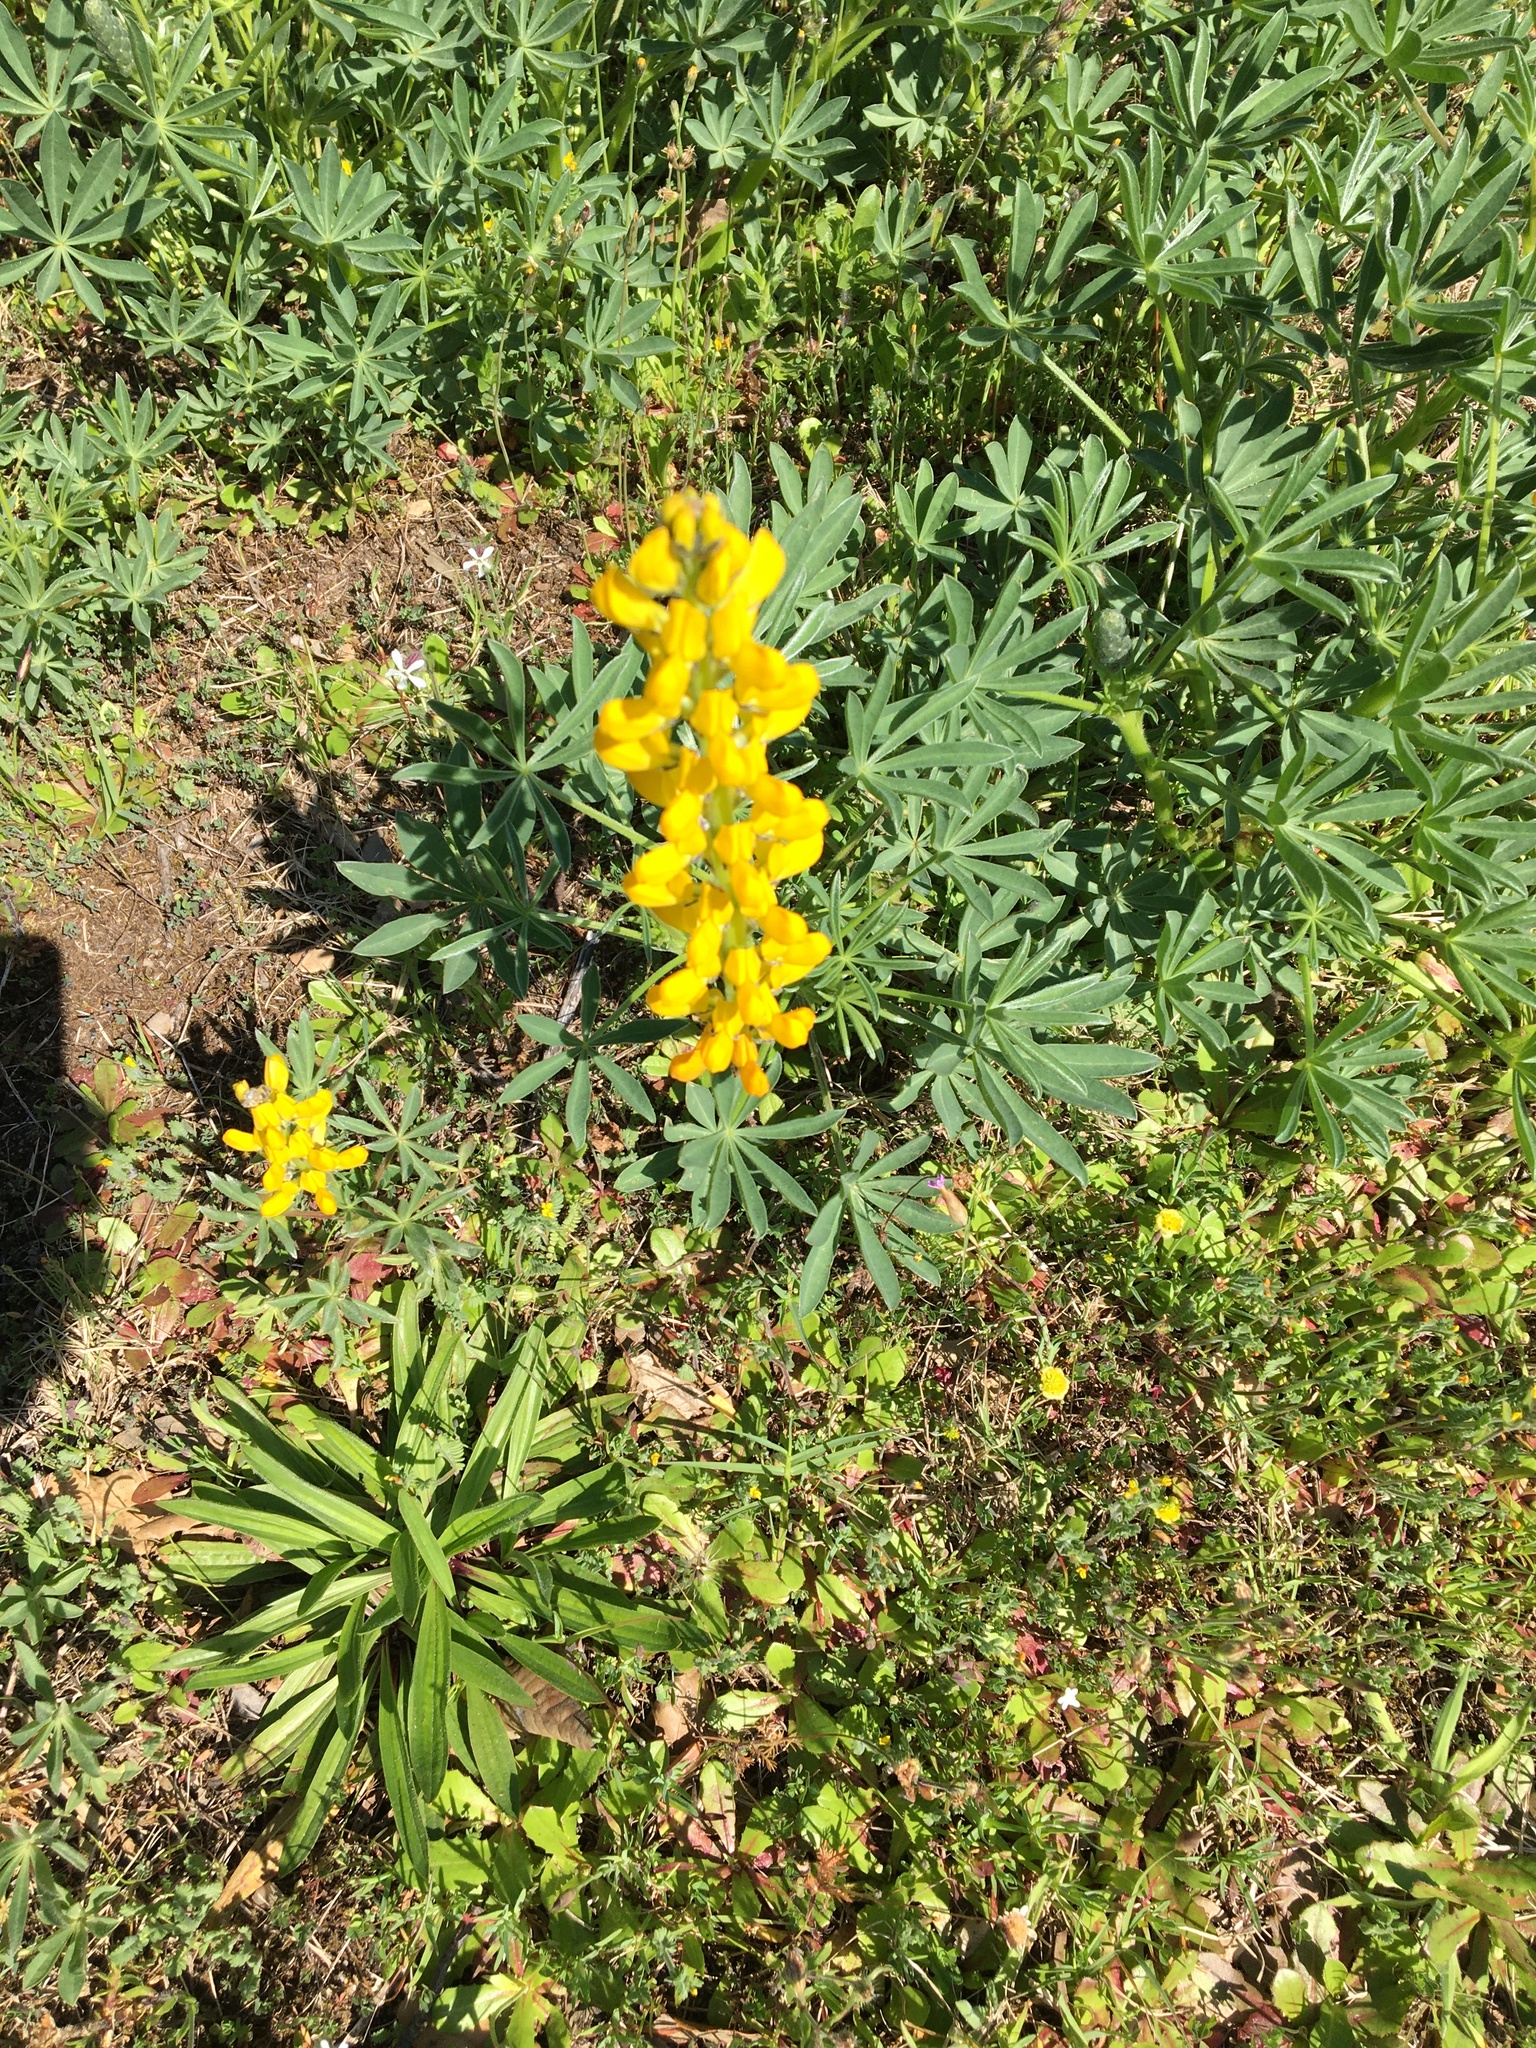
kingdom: Plantae
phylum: Tracheophyta
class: Magnoliopsida
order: Fabales
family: Fabaceae
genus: Lupinus
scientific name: Lupinus luteus
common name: European yellow lupine
